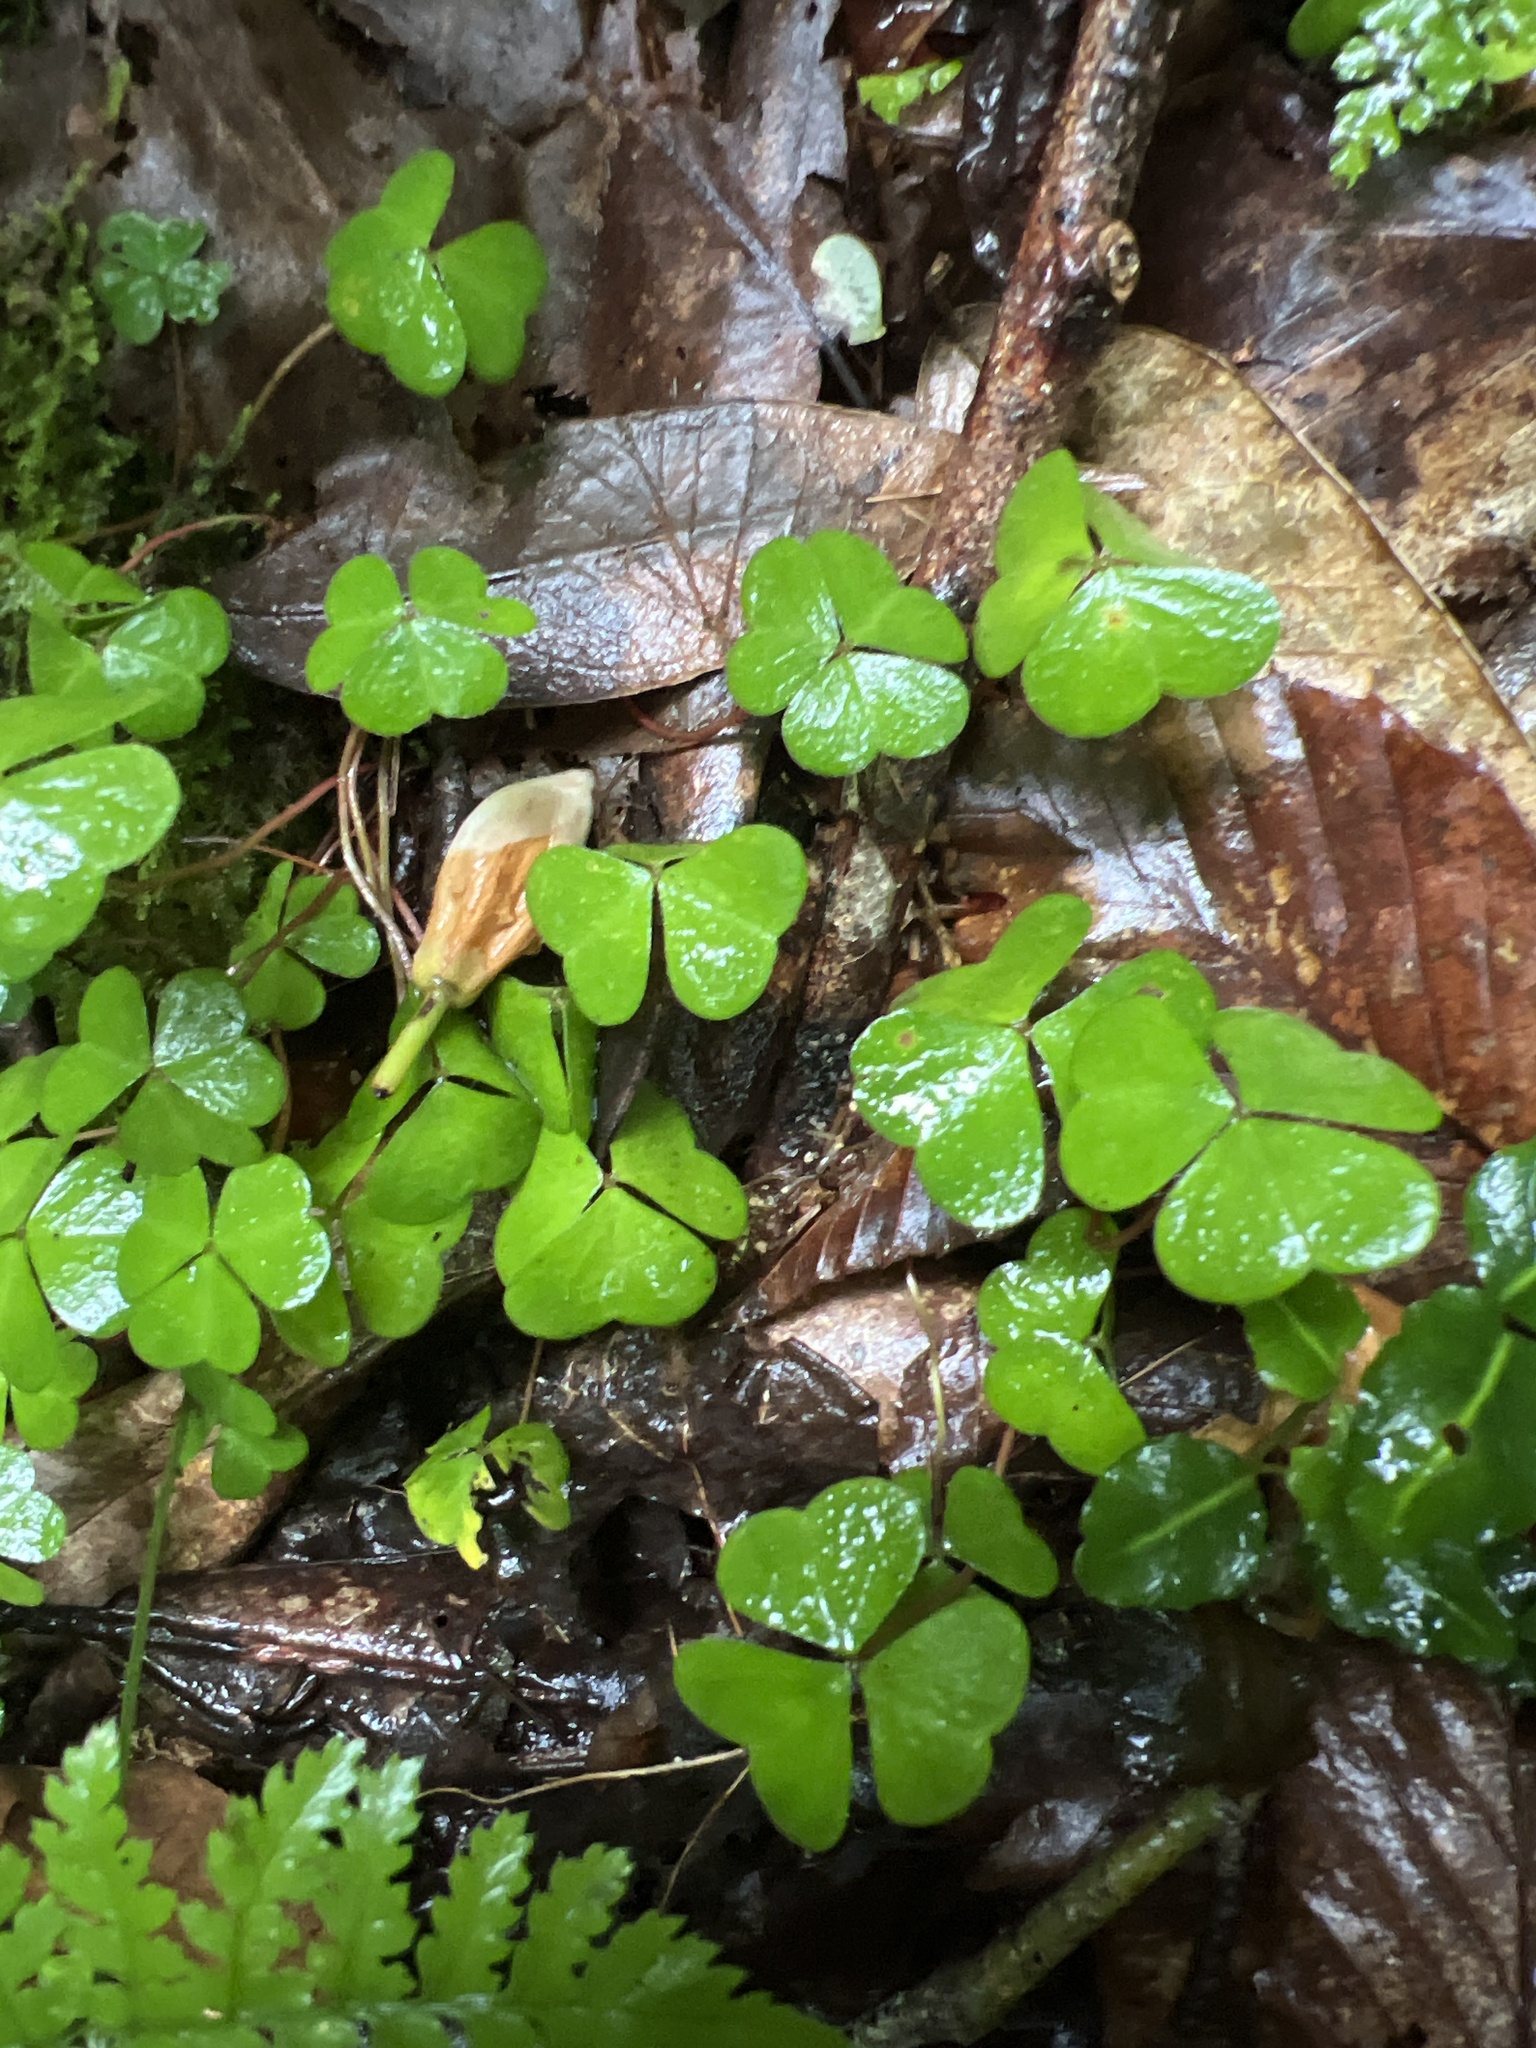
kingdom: Plantae
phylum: Tracheophyta
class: Magnoliopsida
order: Oxalidales
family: Oxalidaceae
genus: Oxalis
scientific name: Oxalis montana
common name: American wood-sorrel
